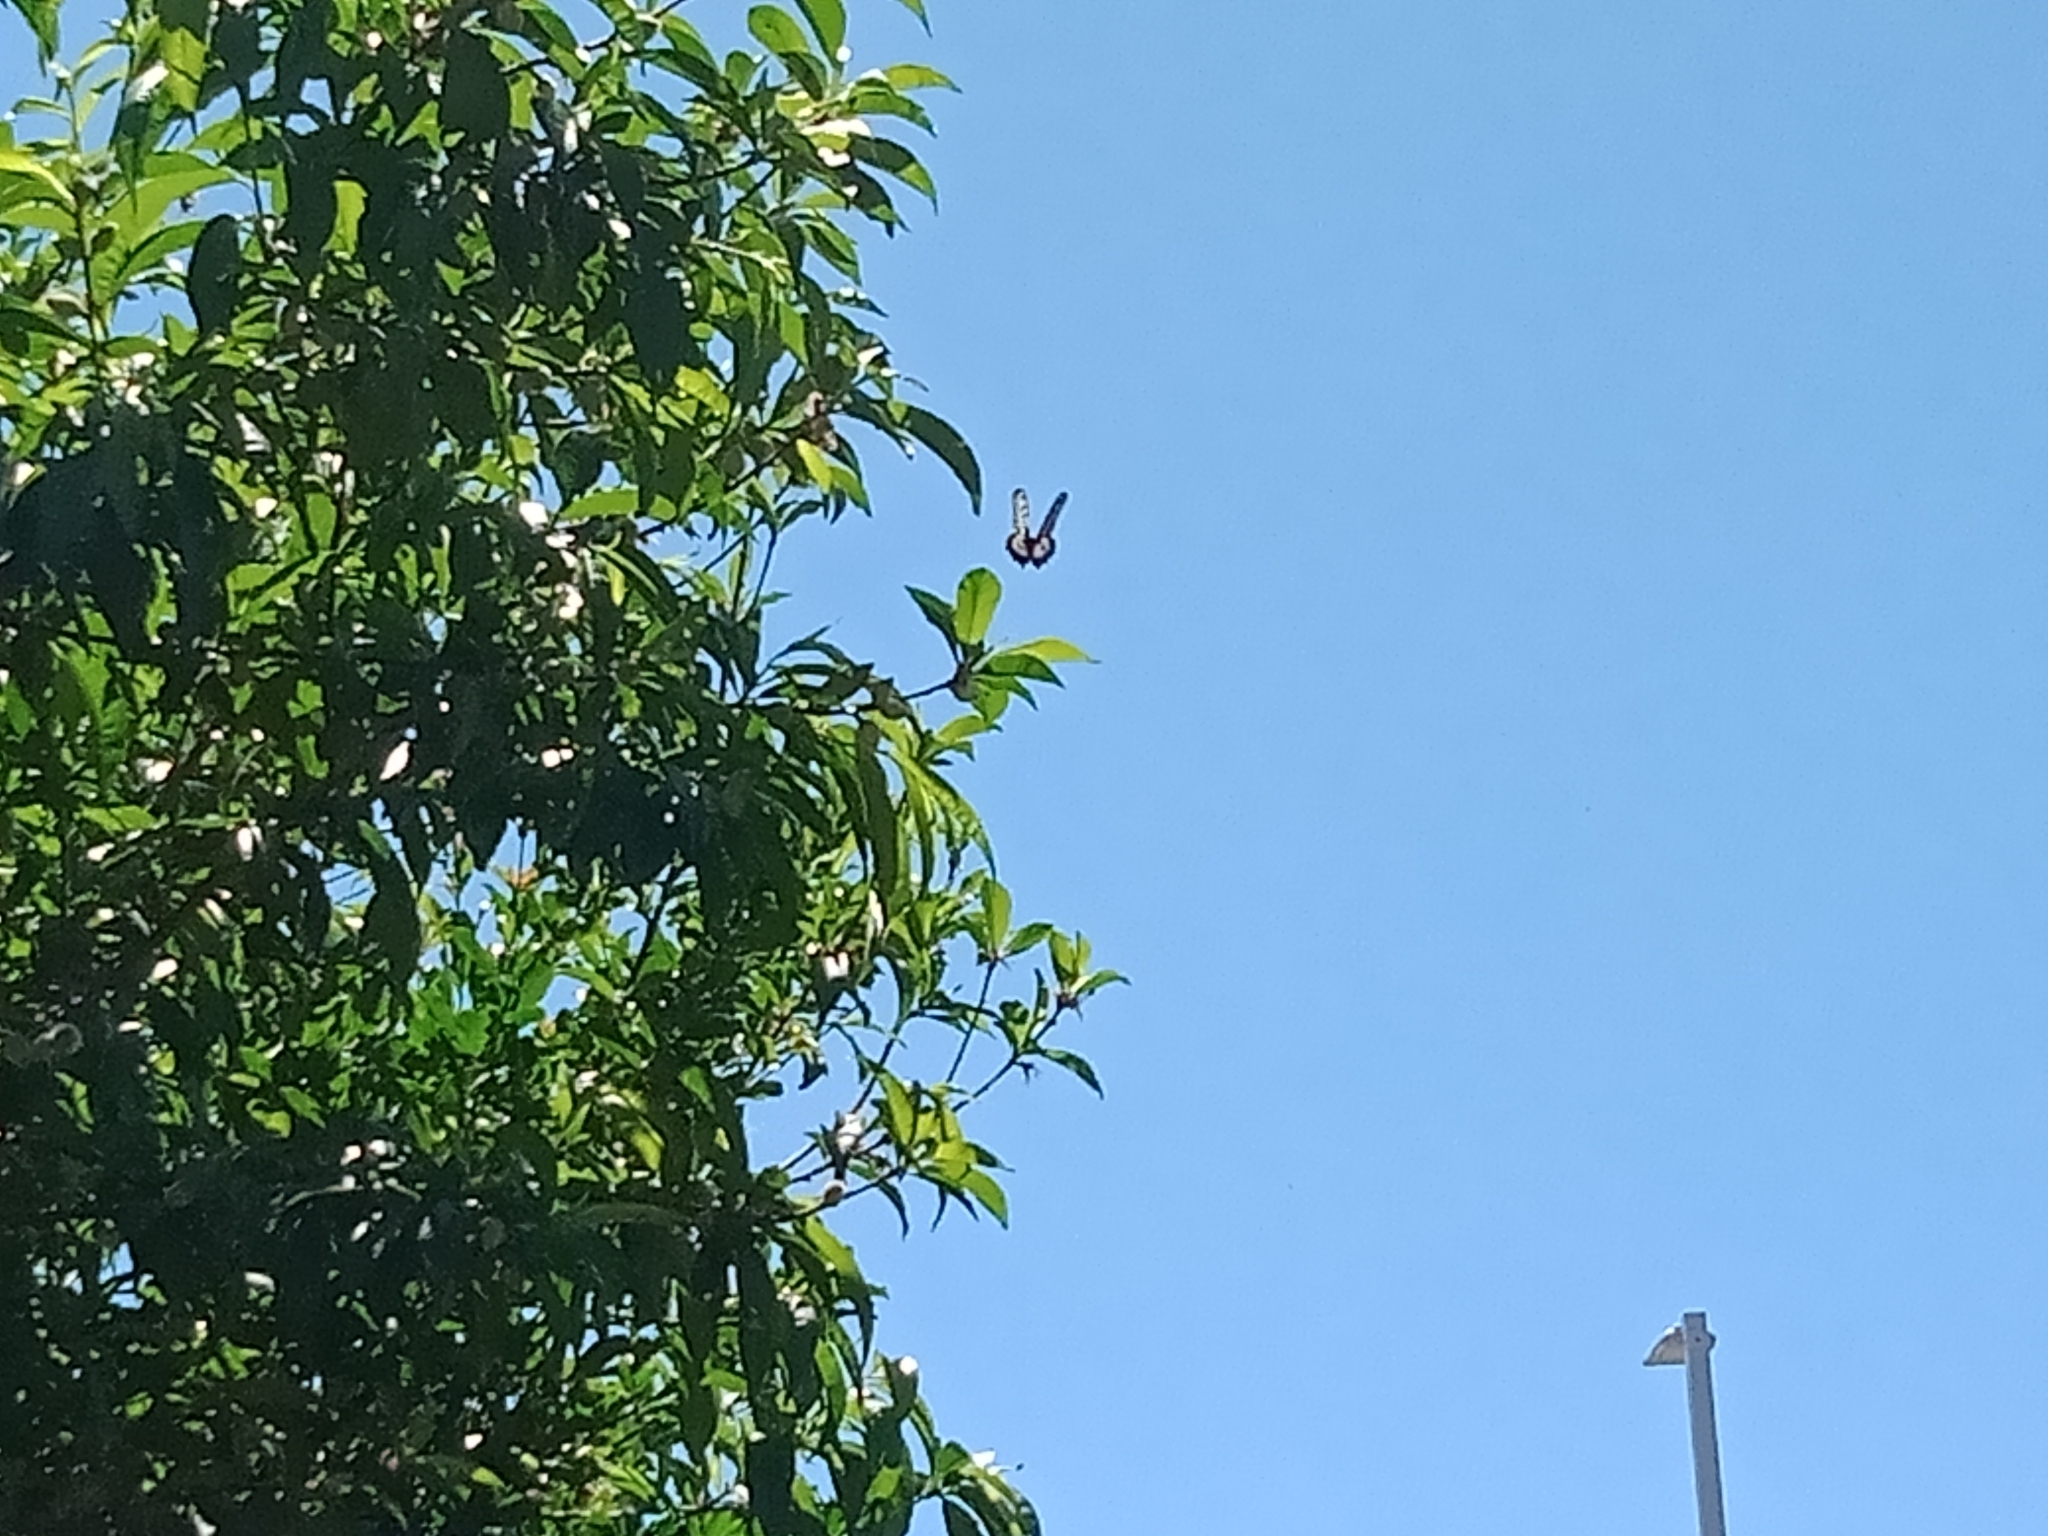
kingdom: Animalia
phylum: Arthropoda
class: Insecta
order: Lepidoptera
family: Papilionidae
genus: Papilio
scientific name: Papilio aegeus
